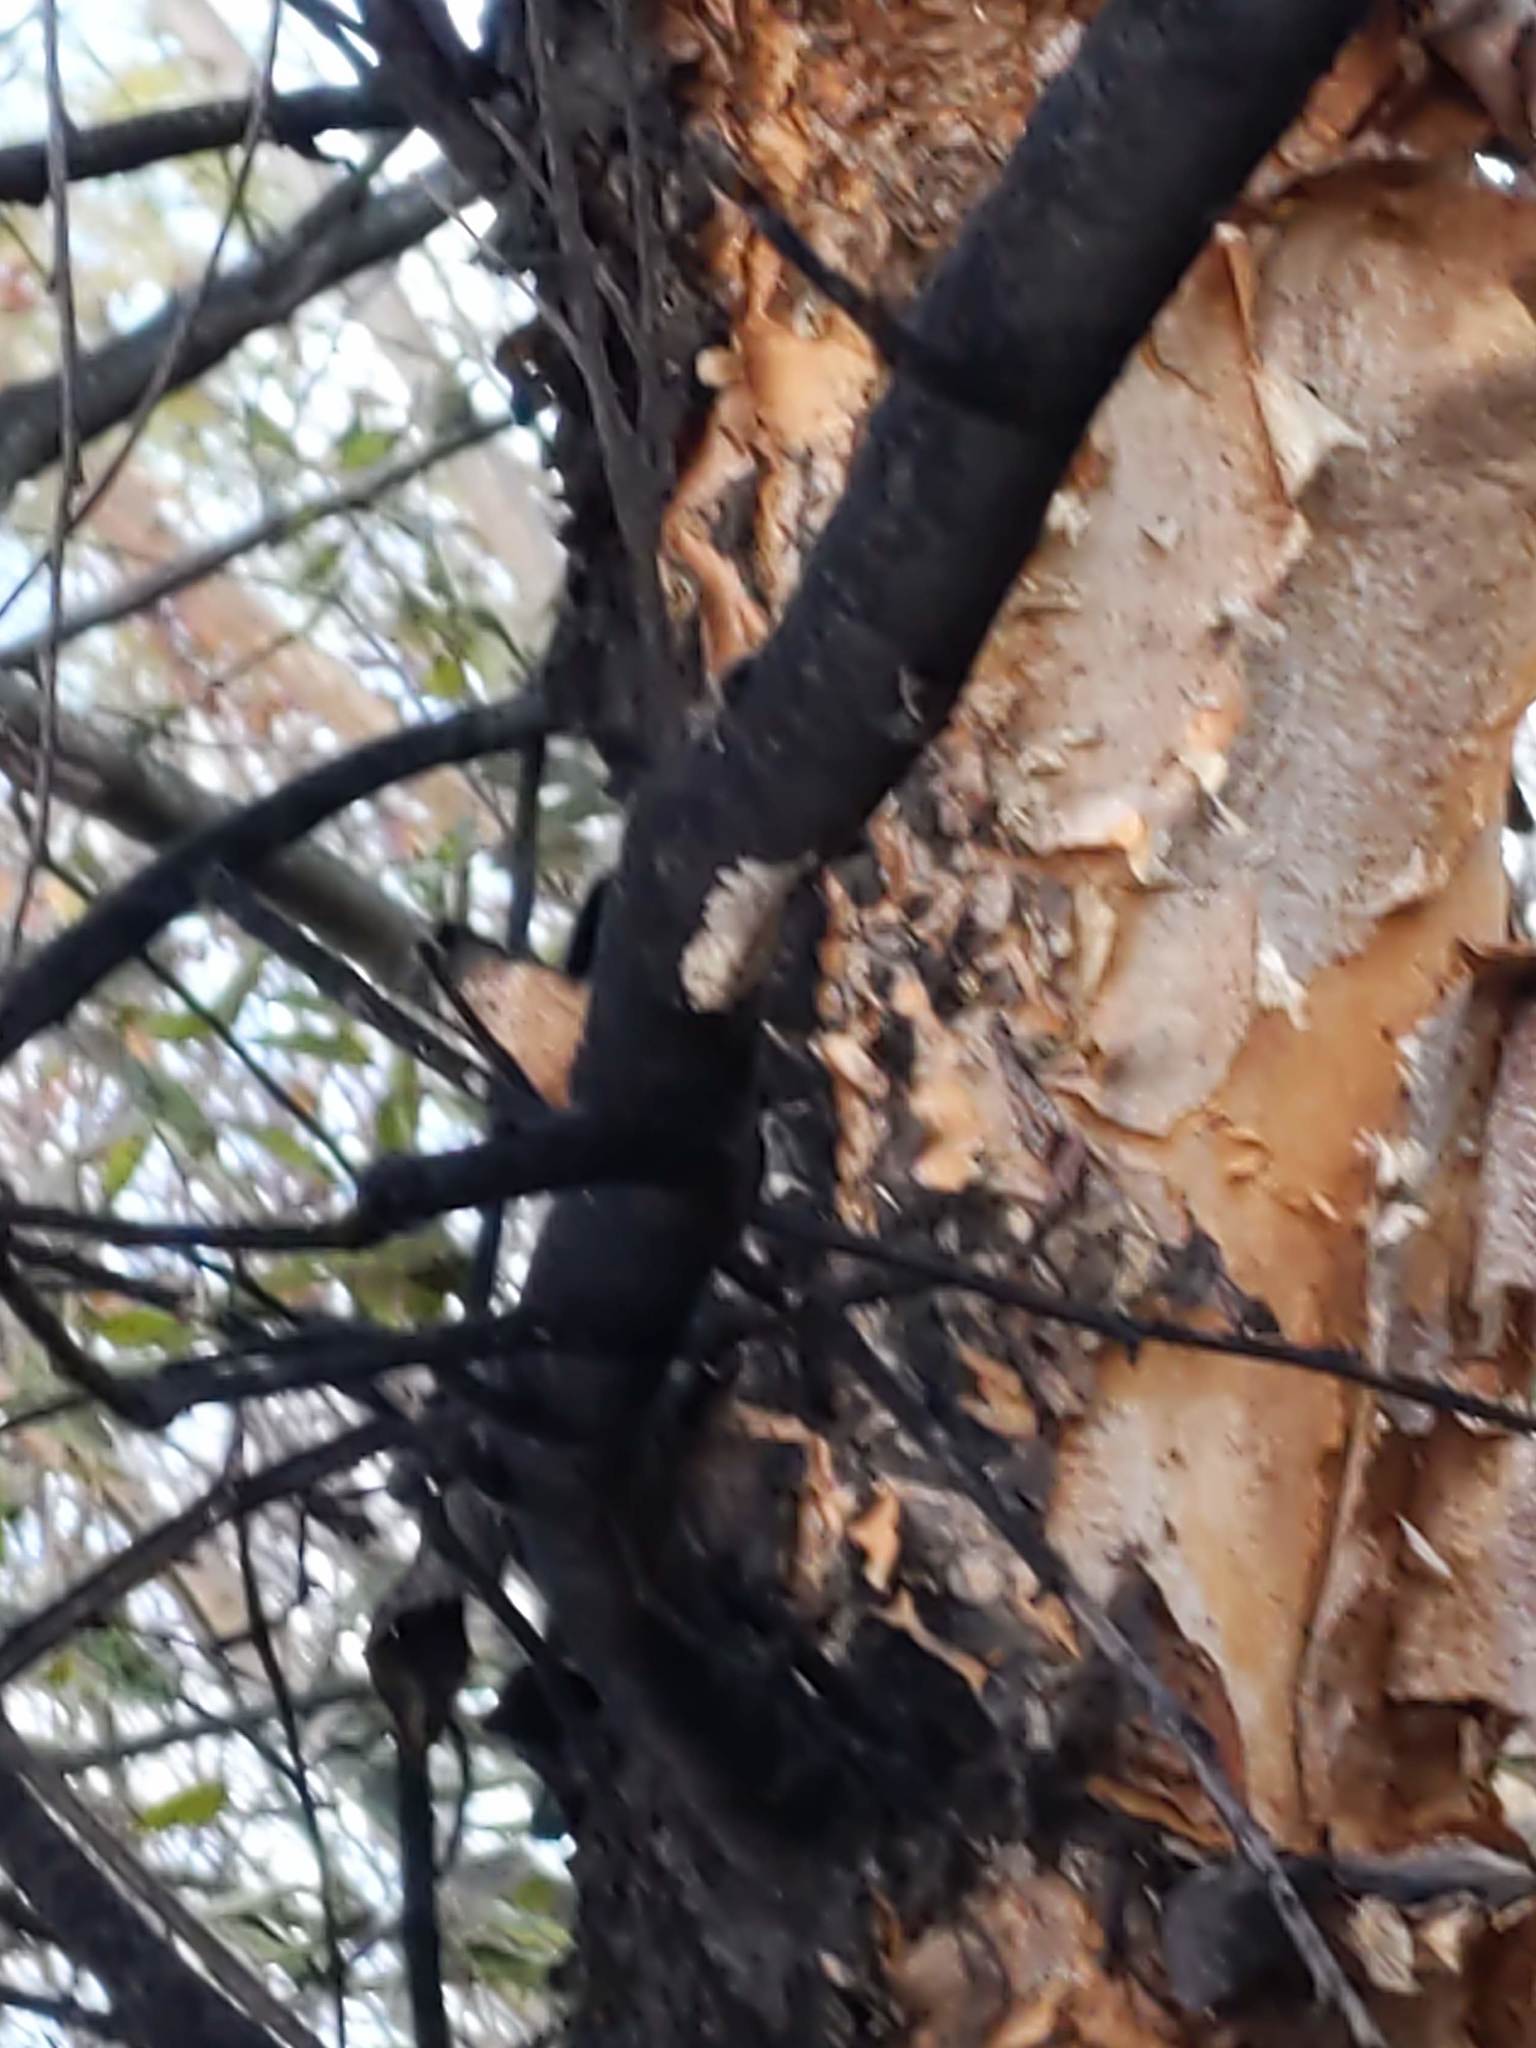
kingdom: Animalia
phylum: Arthropoda
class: Insecta
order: Hemiptera
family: Fulgoridae
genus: Lycorma
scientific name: Lycorma delicatula
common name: Spotted lanternfly
